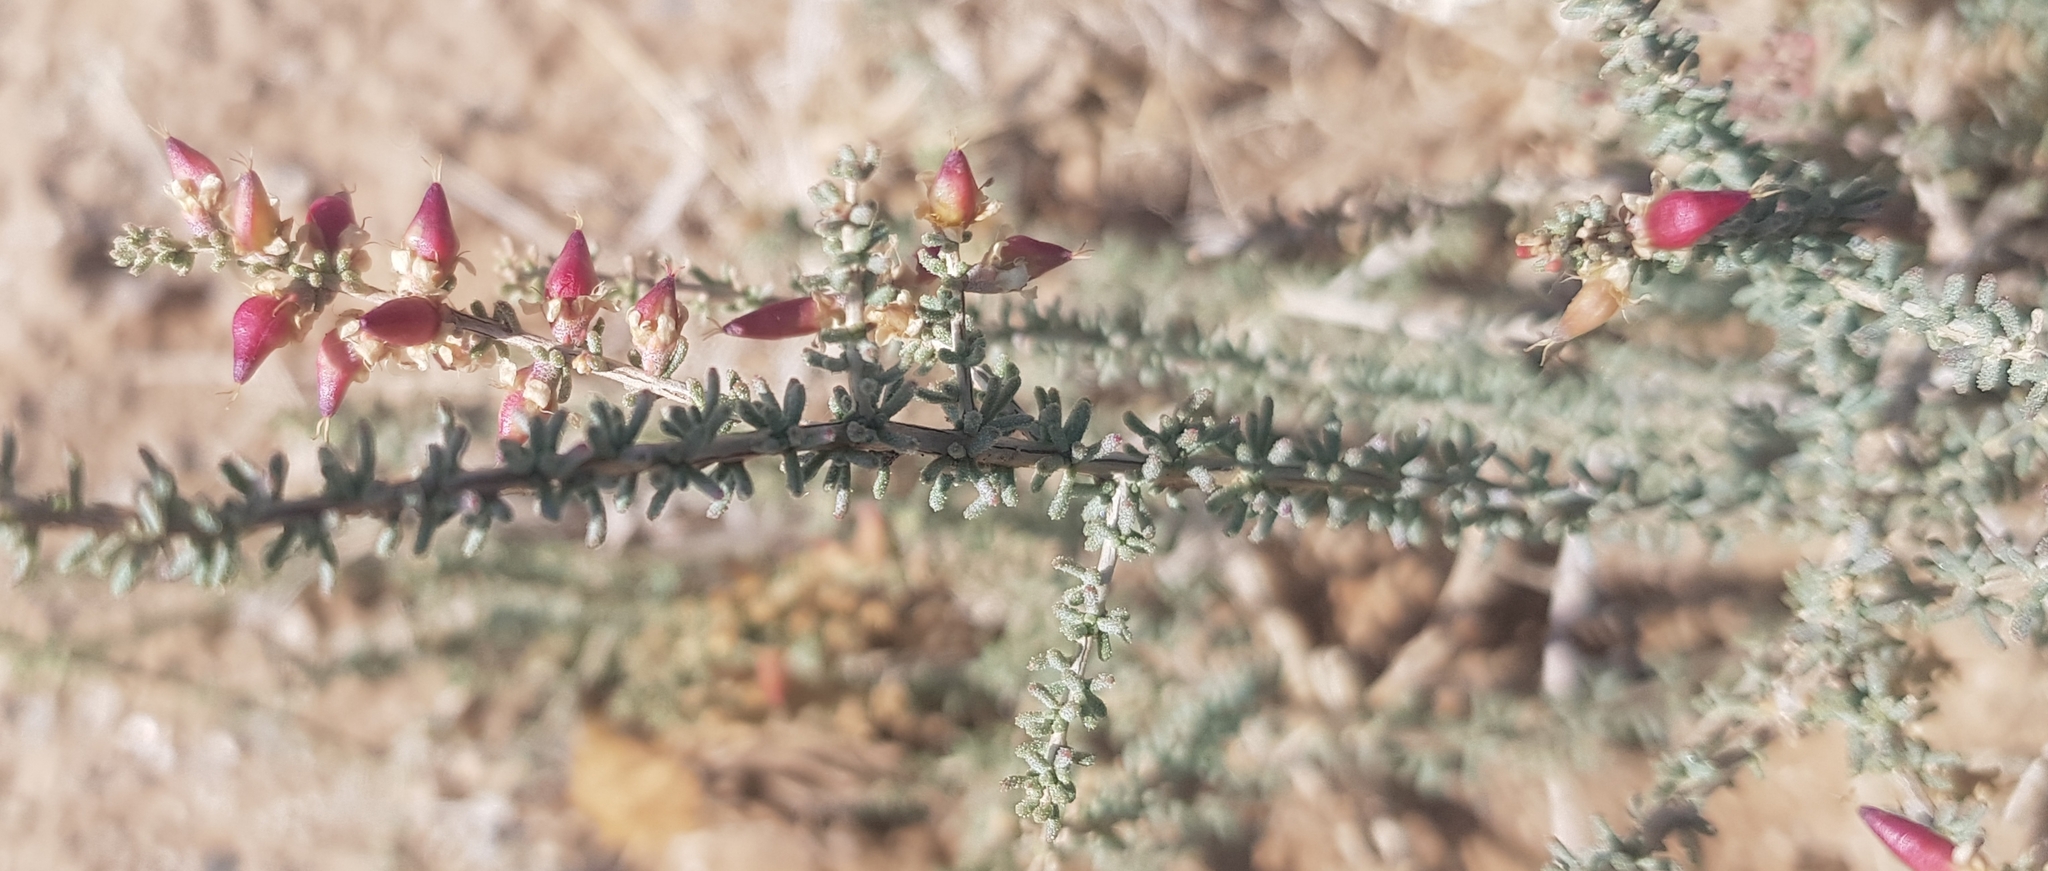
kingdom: Plantae
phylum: Tracheophyta
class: Magnoliopsida
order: Caryophyllales
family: Tamaricaceae
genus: Reaumuria
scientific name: Reaumuria soongorica
